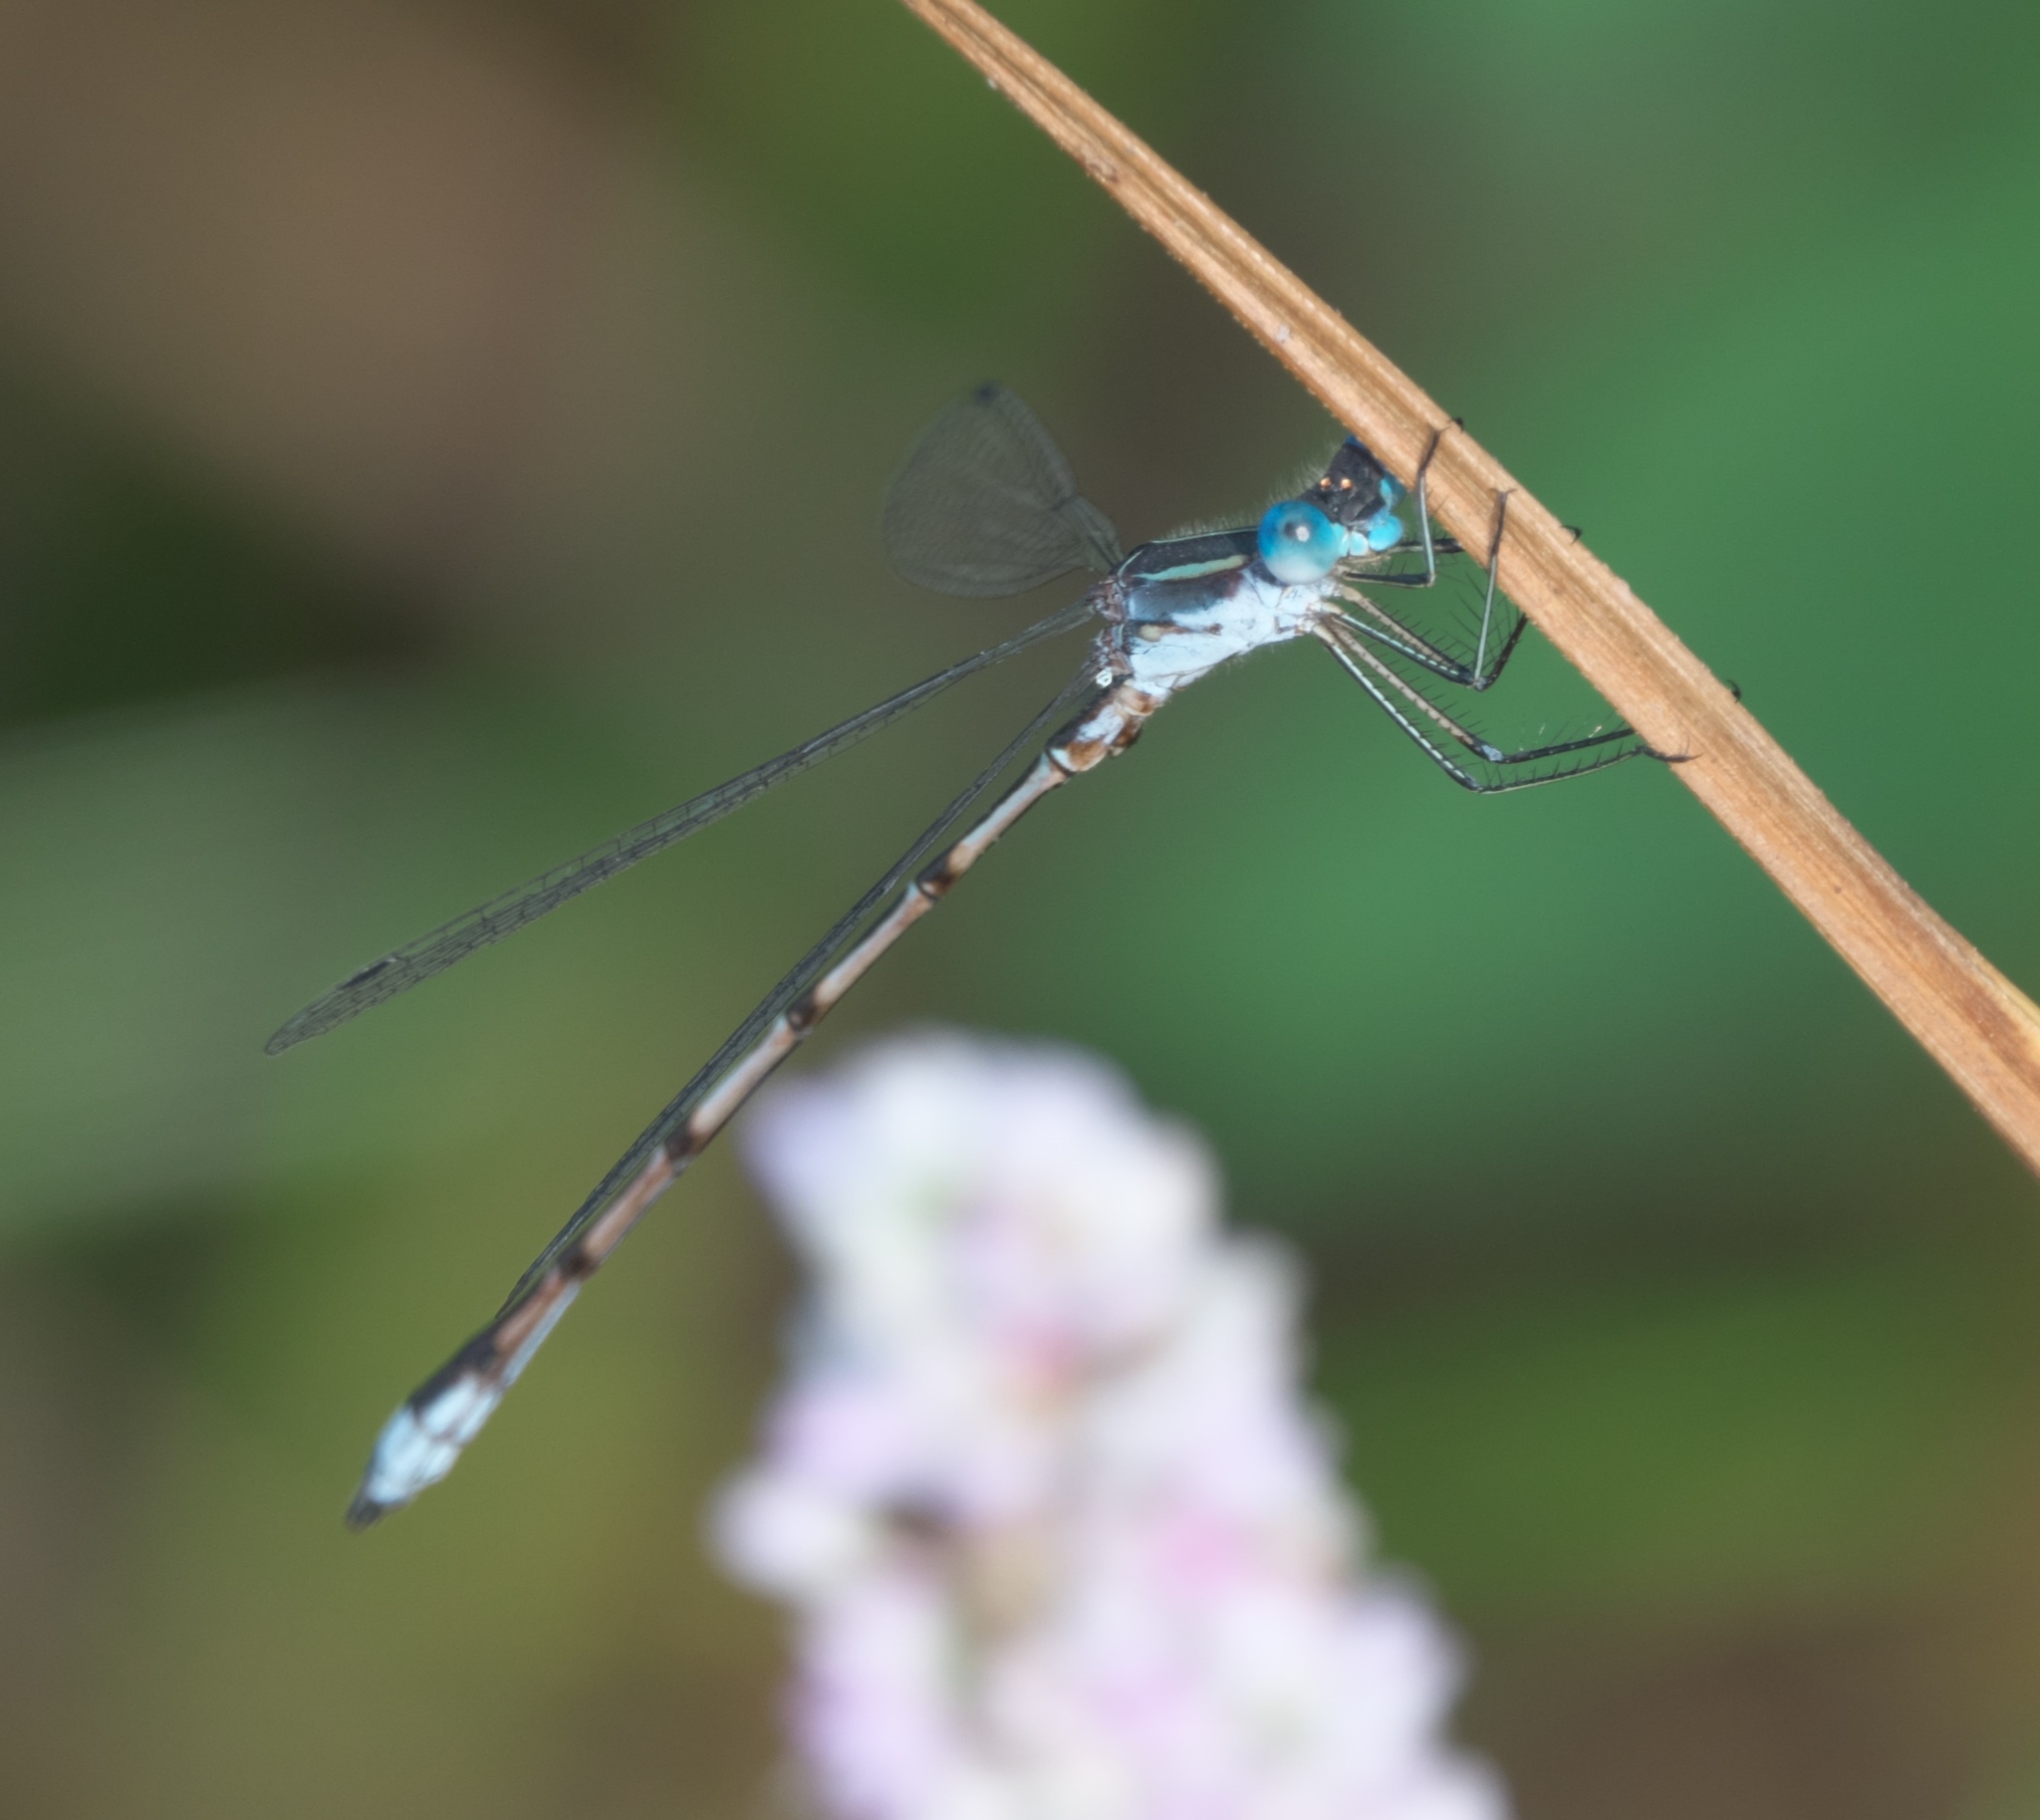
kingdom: Animalia
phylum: Arthropoda
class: Insecta
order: Odonata
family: Lestidae
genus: Lestes
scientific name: Lestes australis
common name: Southern spreadwing
